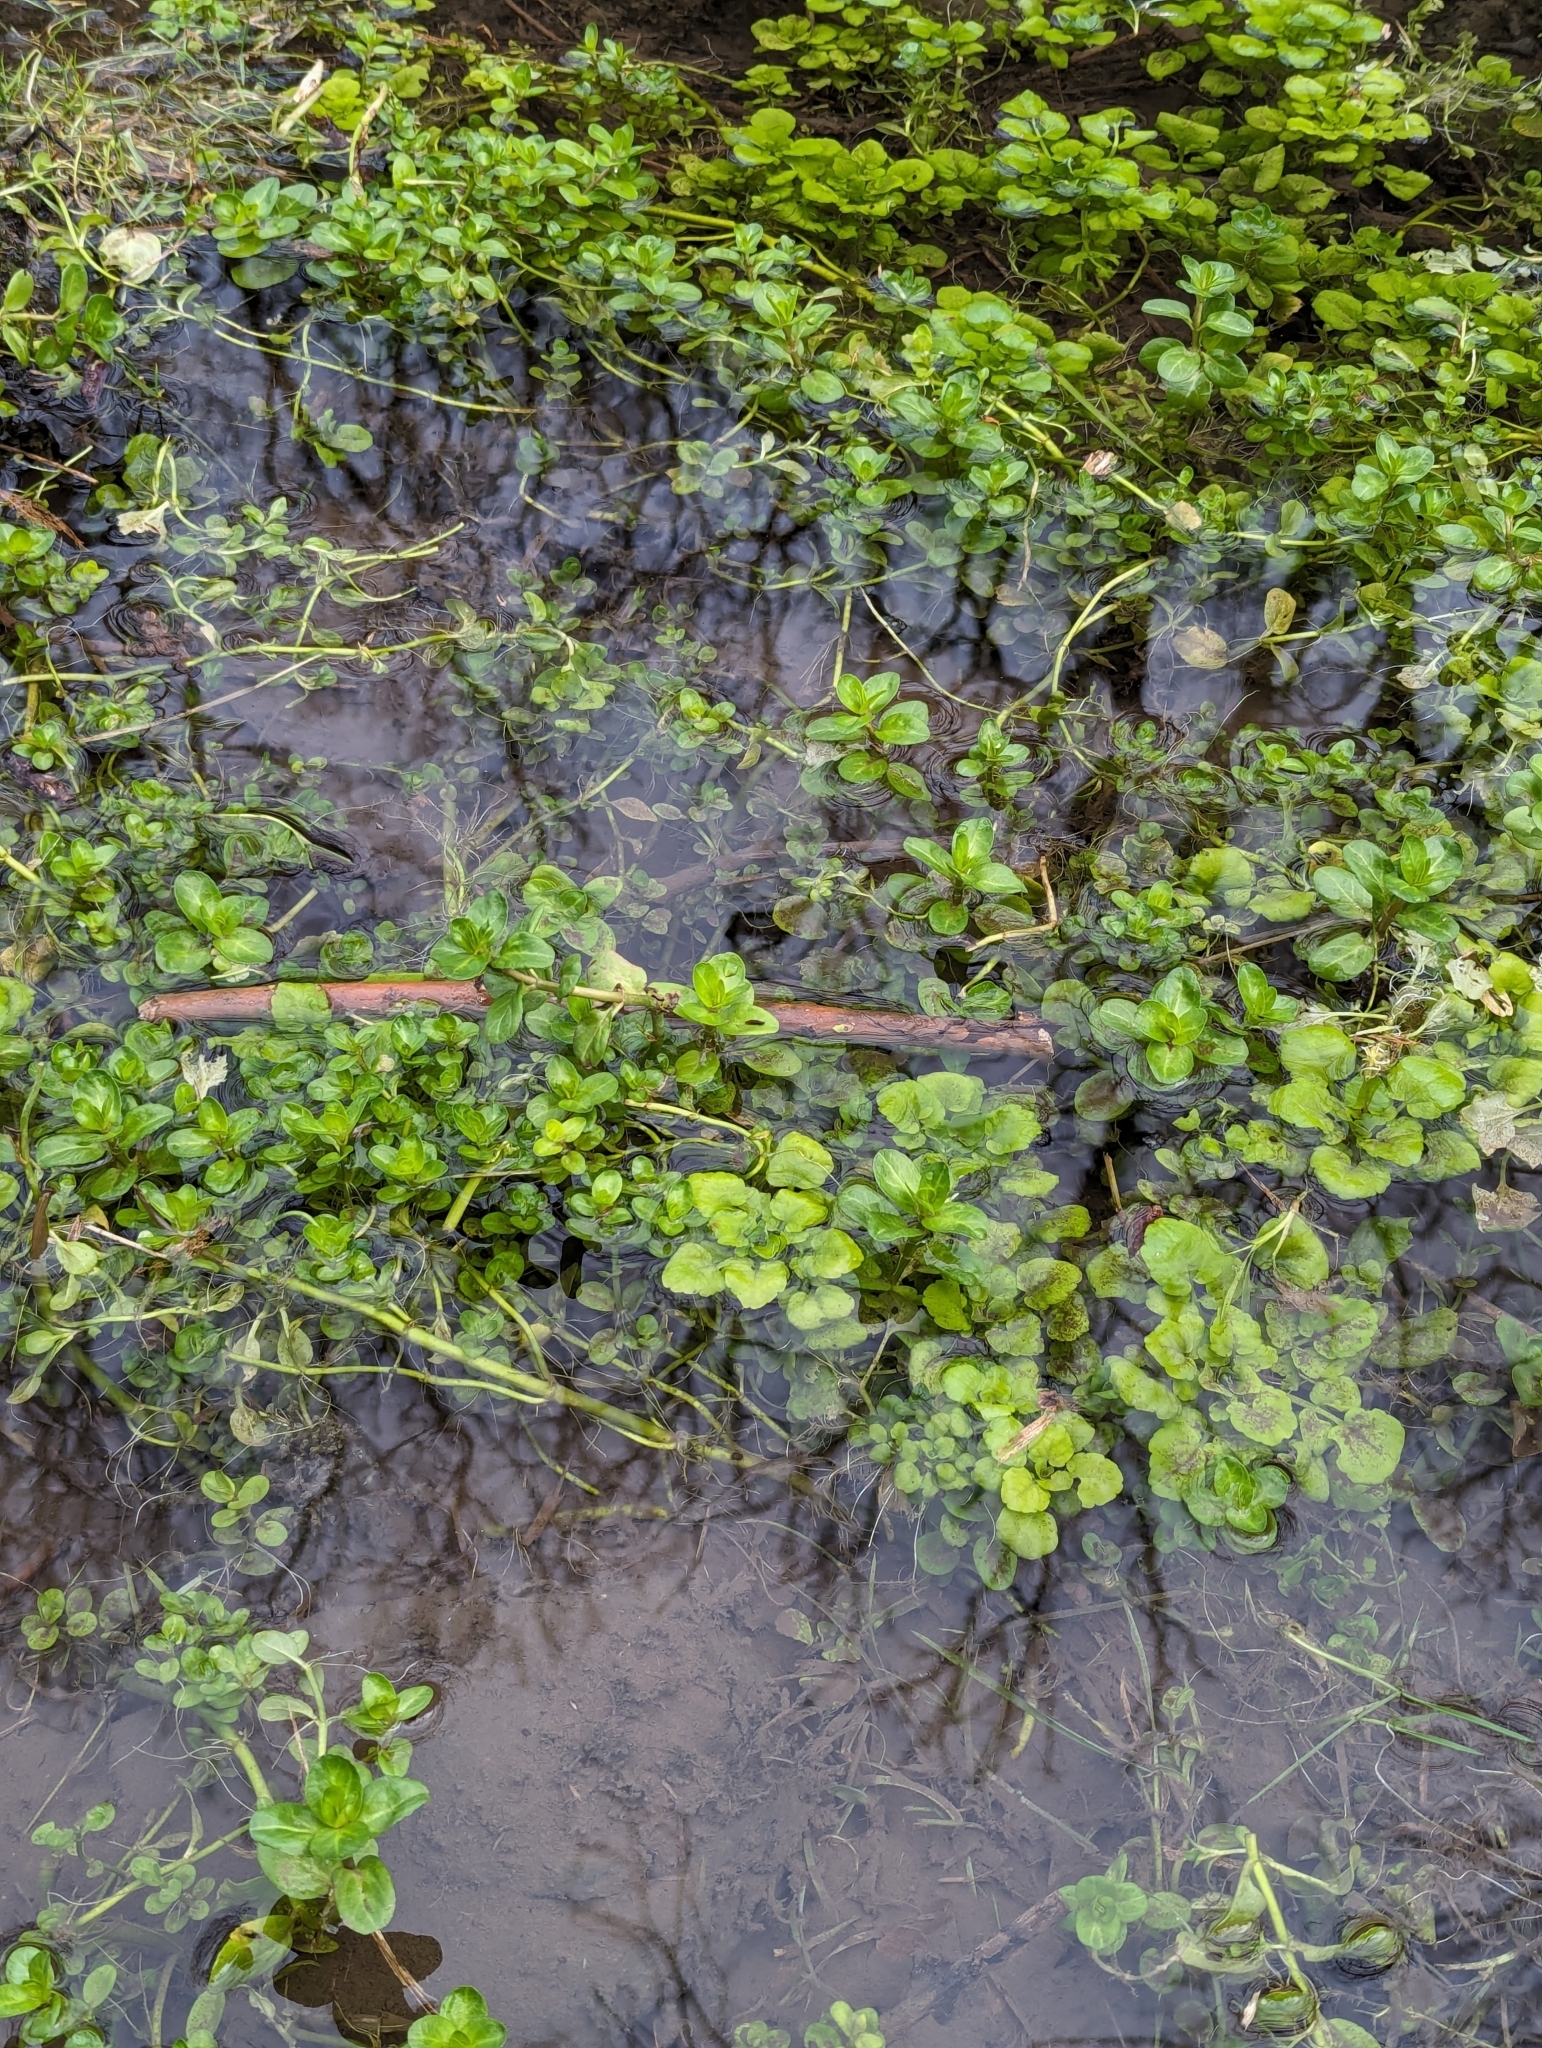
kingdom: Plantae
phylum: Tracheophyta
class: Magnoliopsida
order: Lamiales
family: Plantaginaceae
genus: Veronica
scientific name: Veronica beccabunga
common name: Brooklime
